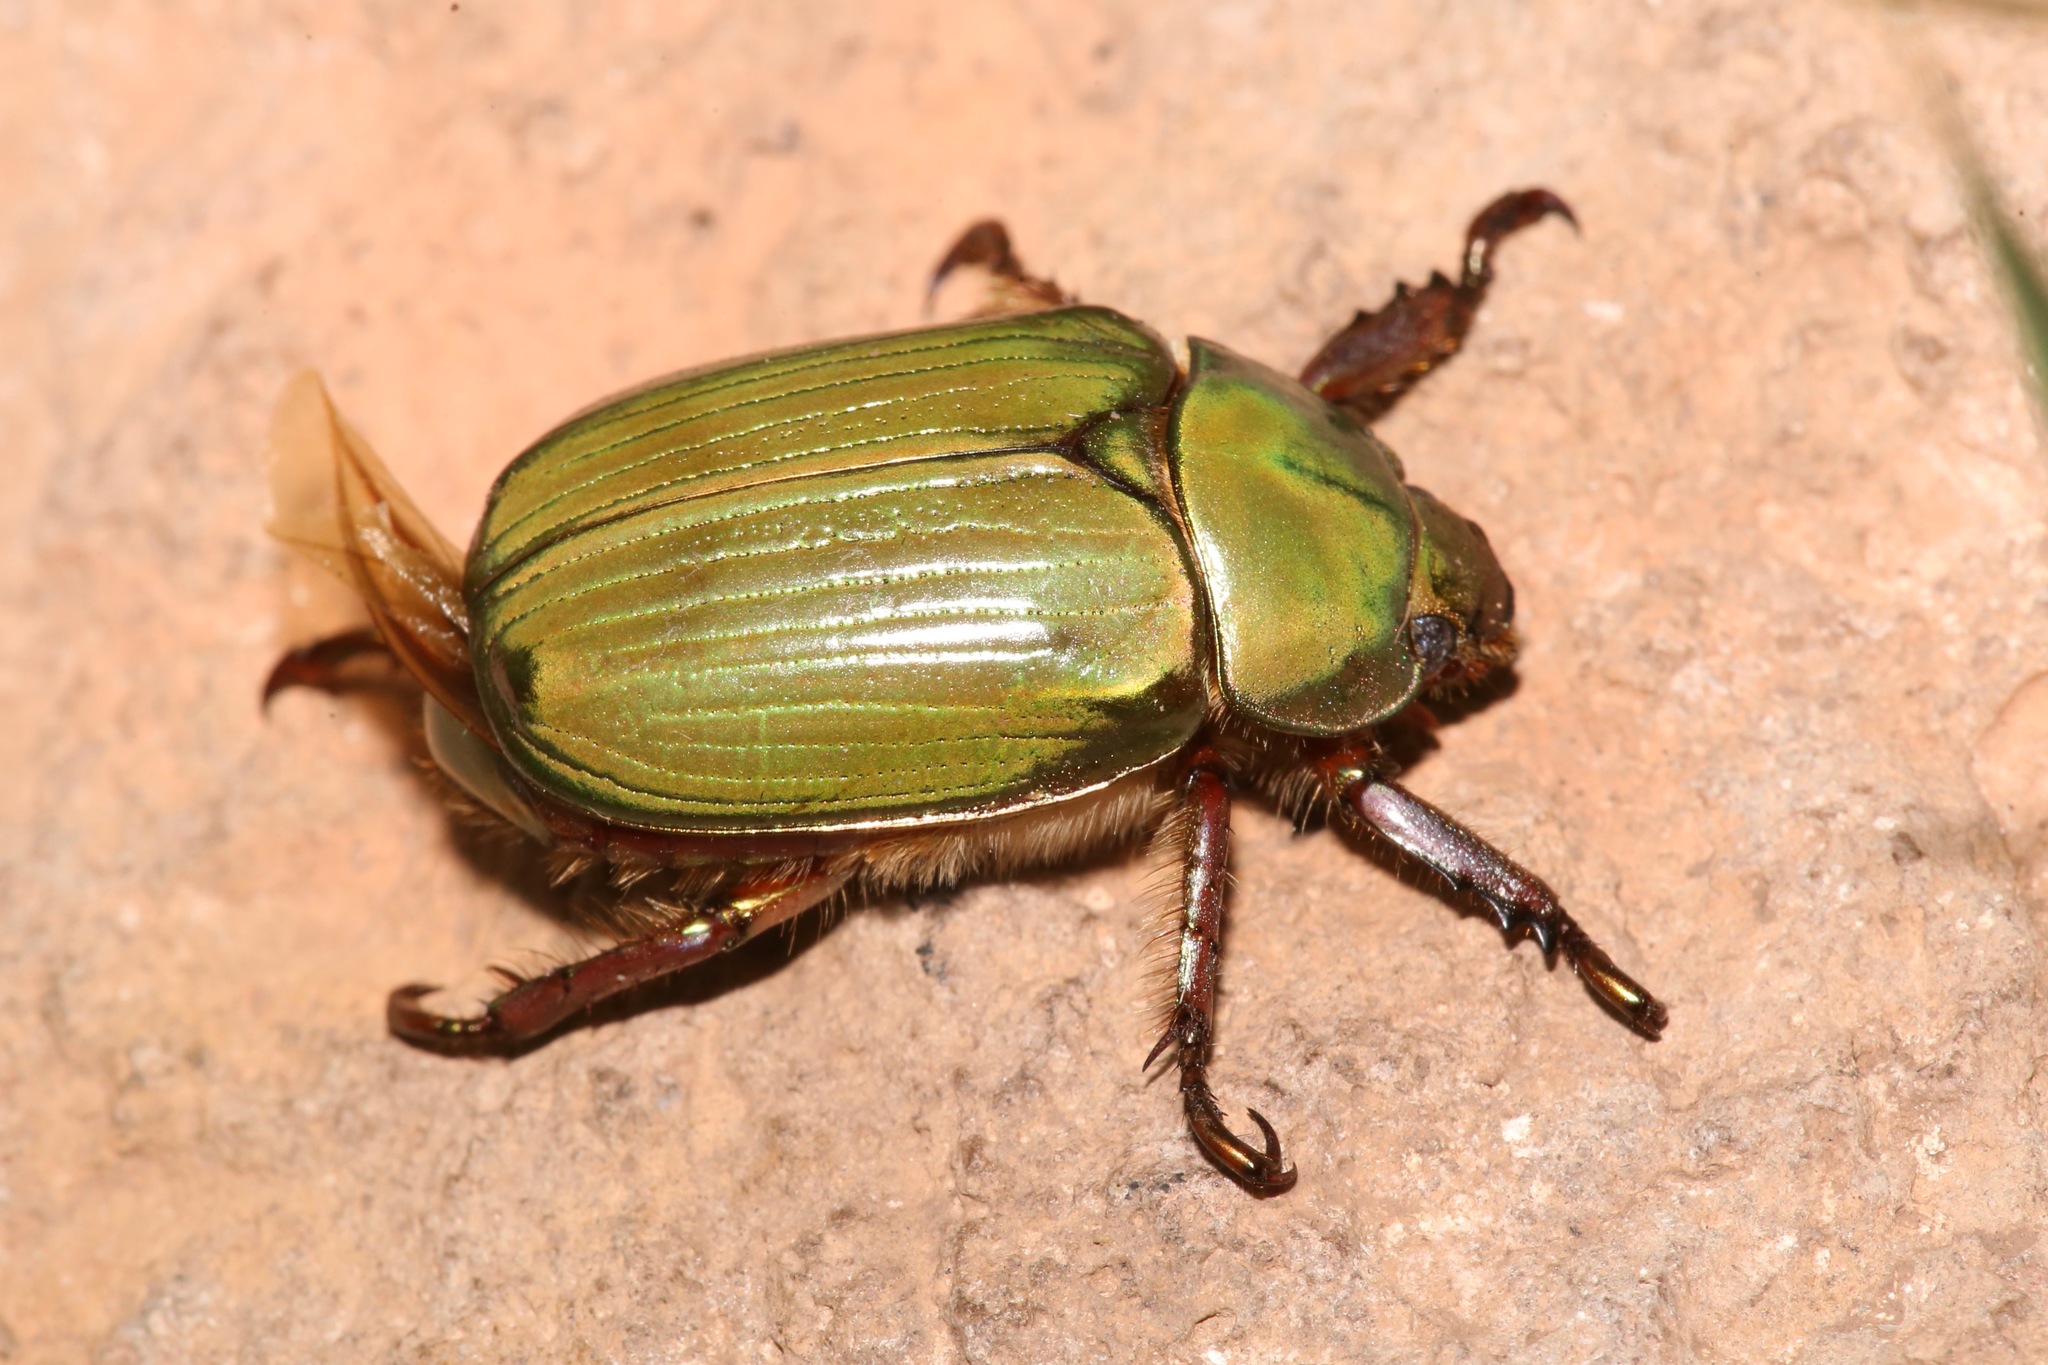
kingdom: Animalia
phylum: Arthropoda
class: Insecta
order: Coleoptera
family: Scarabaeidae
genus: Chrysina
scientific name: Chrysina lecontei
